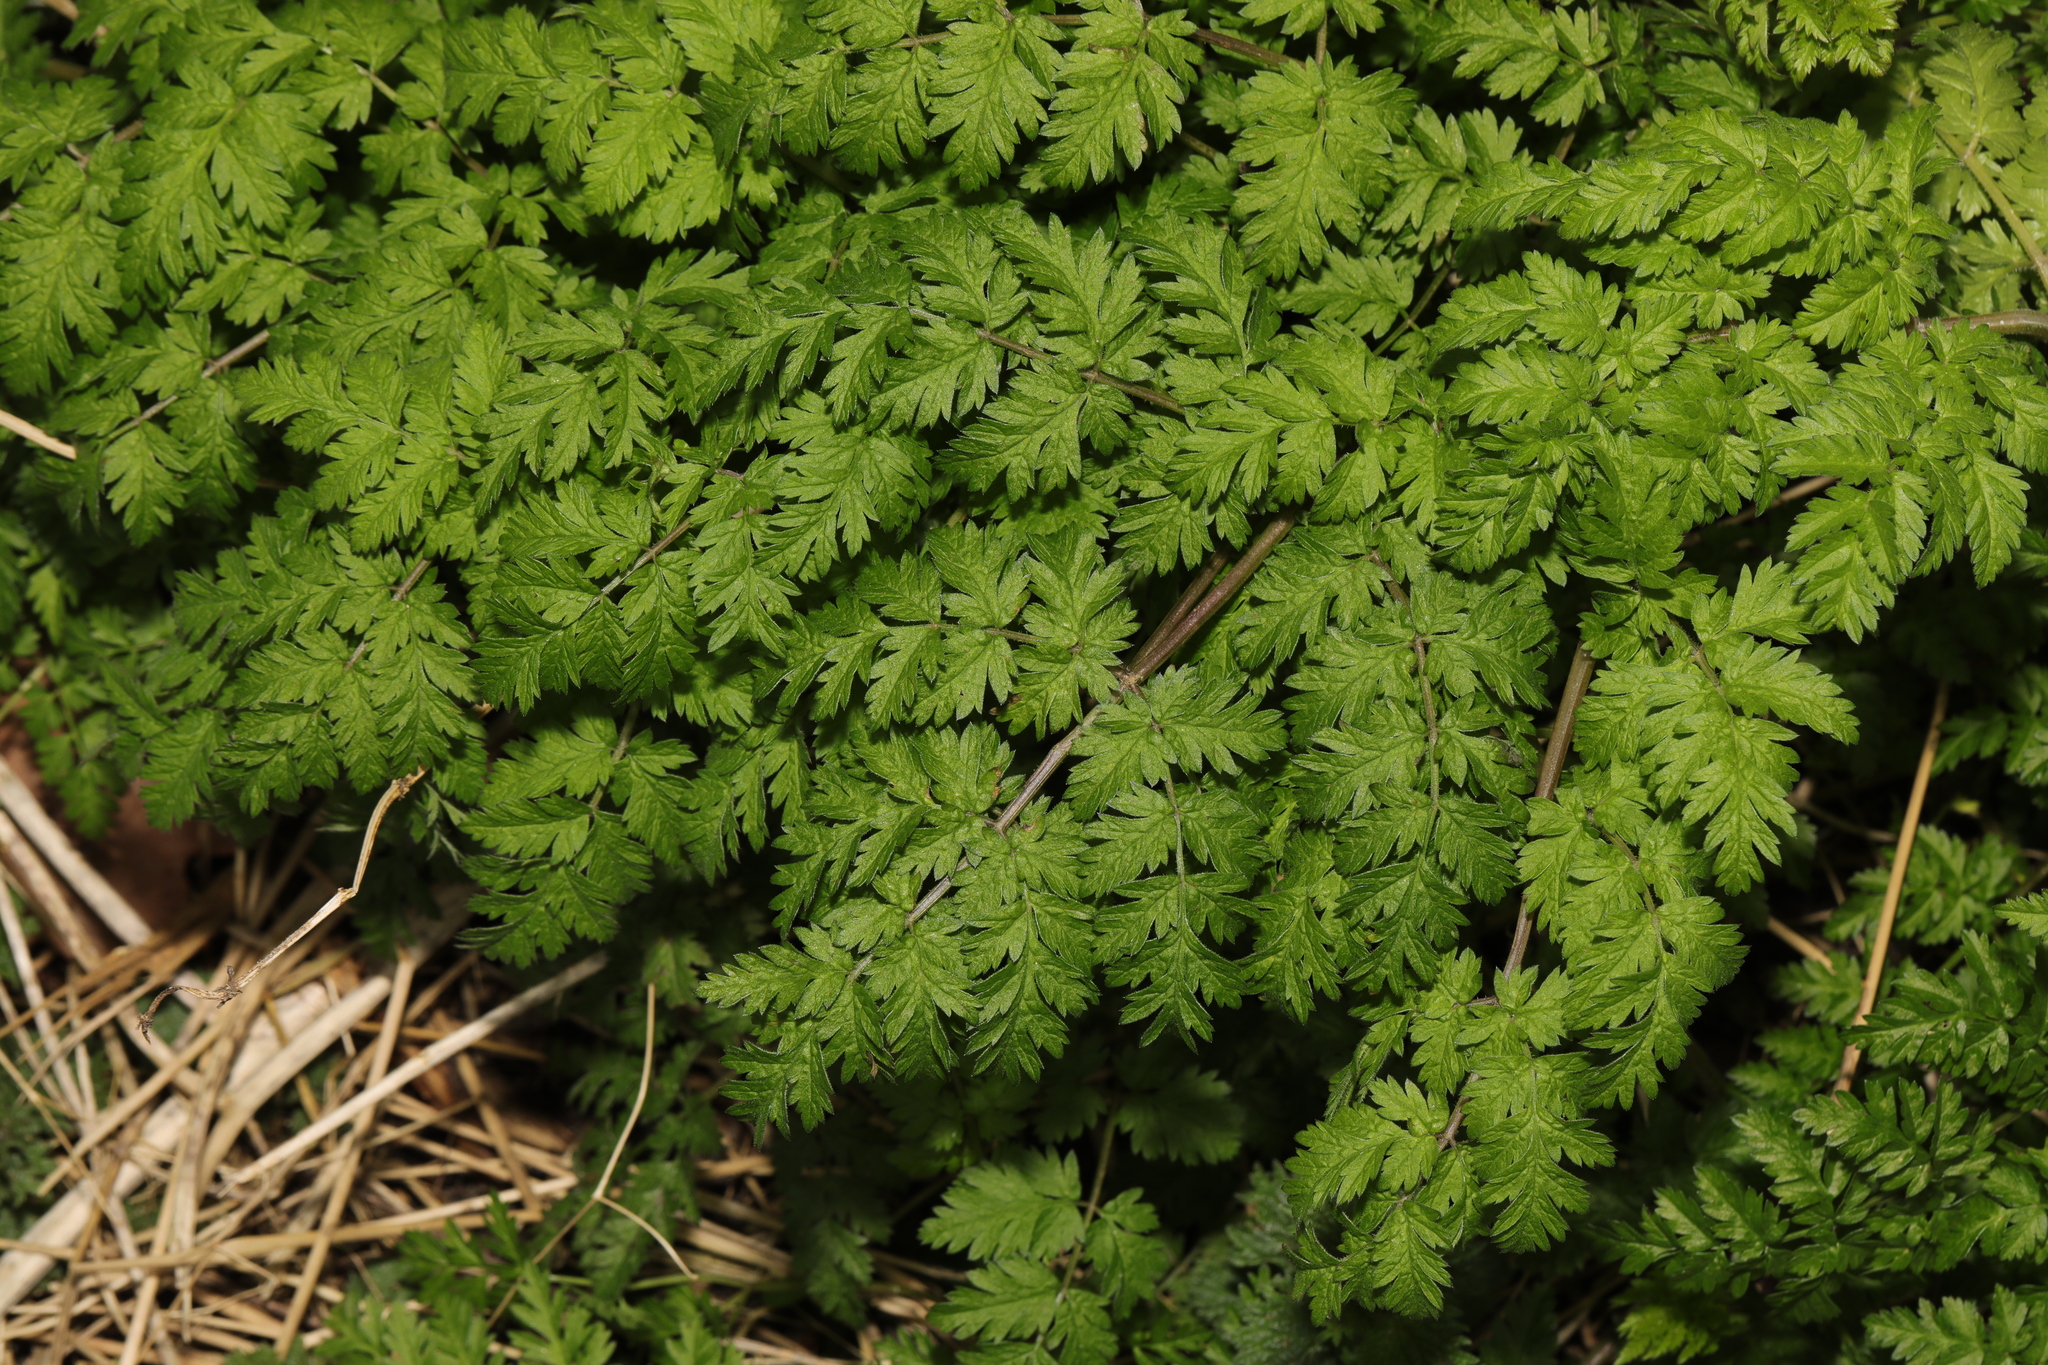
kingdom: Plantae
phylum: Tracheophyta
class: Magnoliopsida
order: Apiales
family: Apiaceae
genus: Anthriscus
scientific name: Anthriscus sylvestris
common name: Cow parsley
